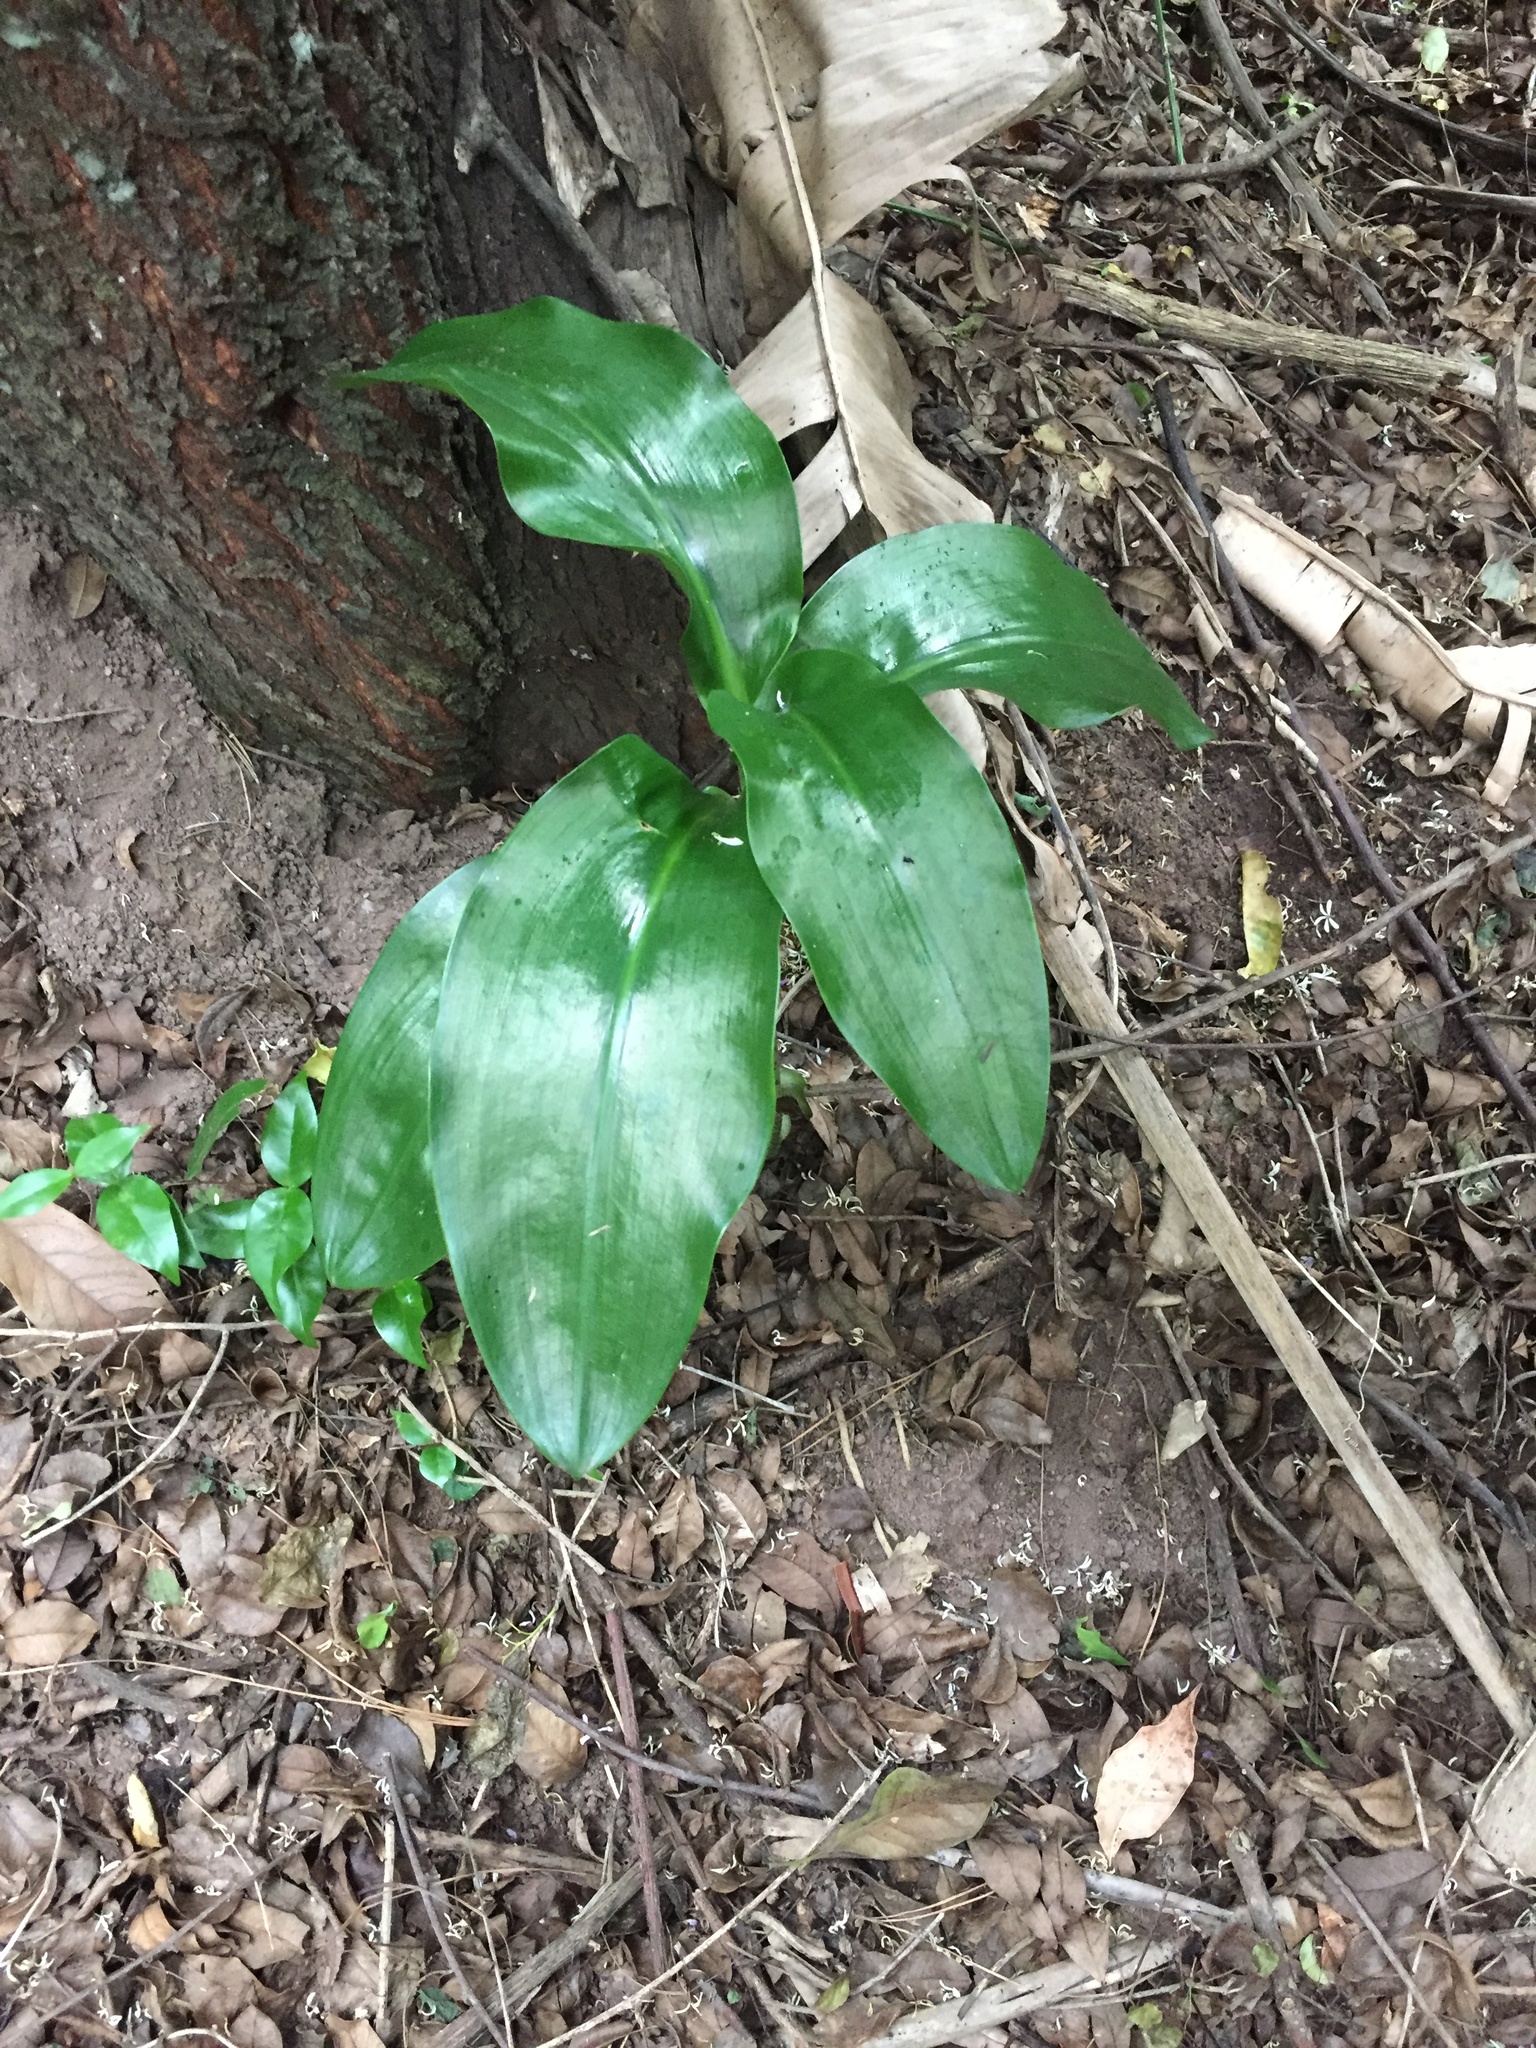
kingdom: Plantae
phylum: Tracheophyta
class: Liliopsida
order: Asparagales
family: Amaryllidaceae
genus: Scadoxus
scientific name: Scadoxus puniceus
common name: Royal-paintbrush
